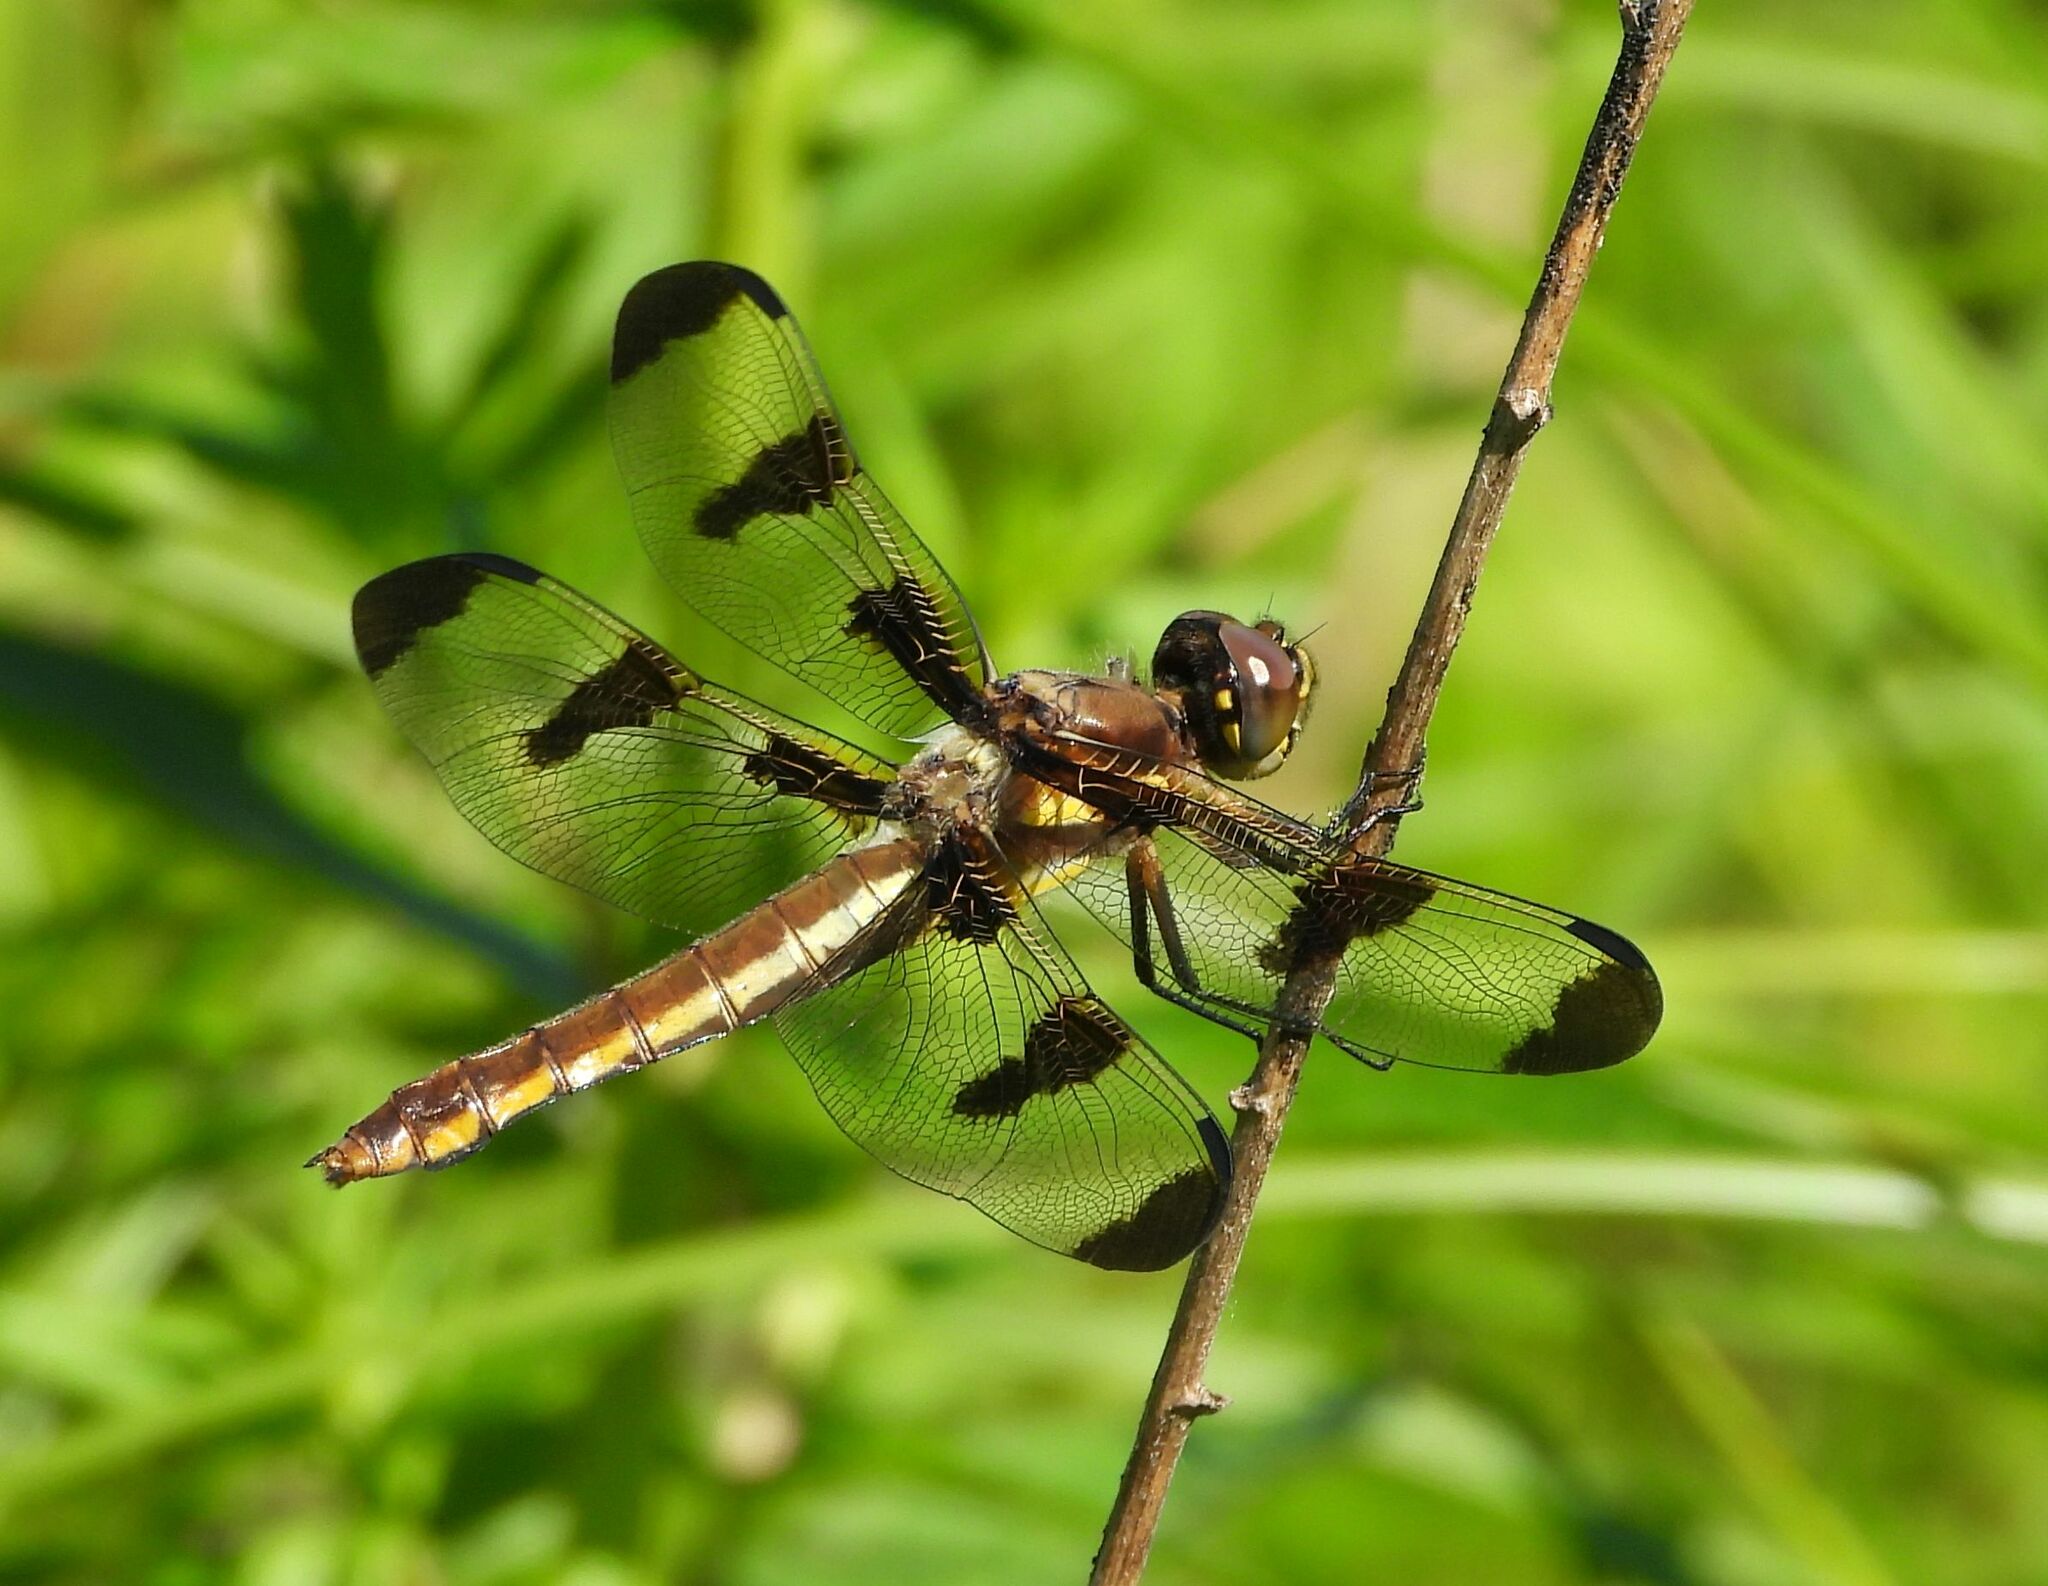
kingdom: Animalia
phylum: Arthropoda
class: Insecta
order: Odonata
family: Libellulidae
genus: Libellula
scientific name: Libellula pulchella
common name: Twelve-spotted skimmer
